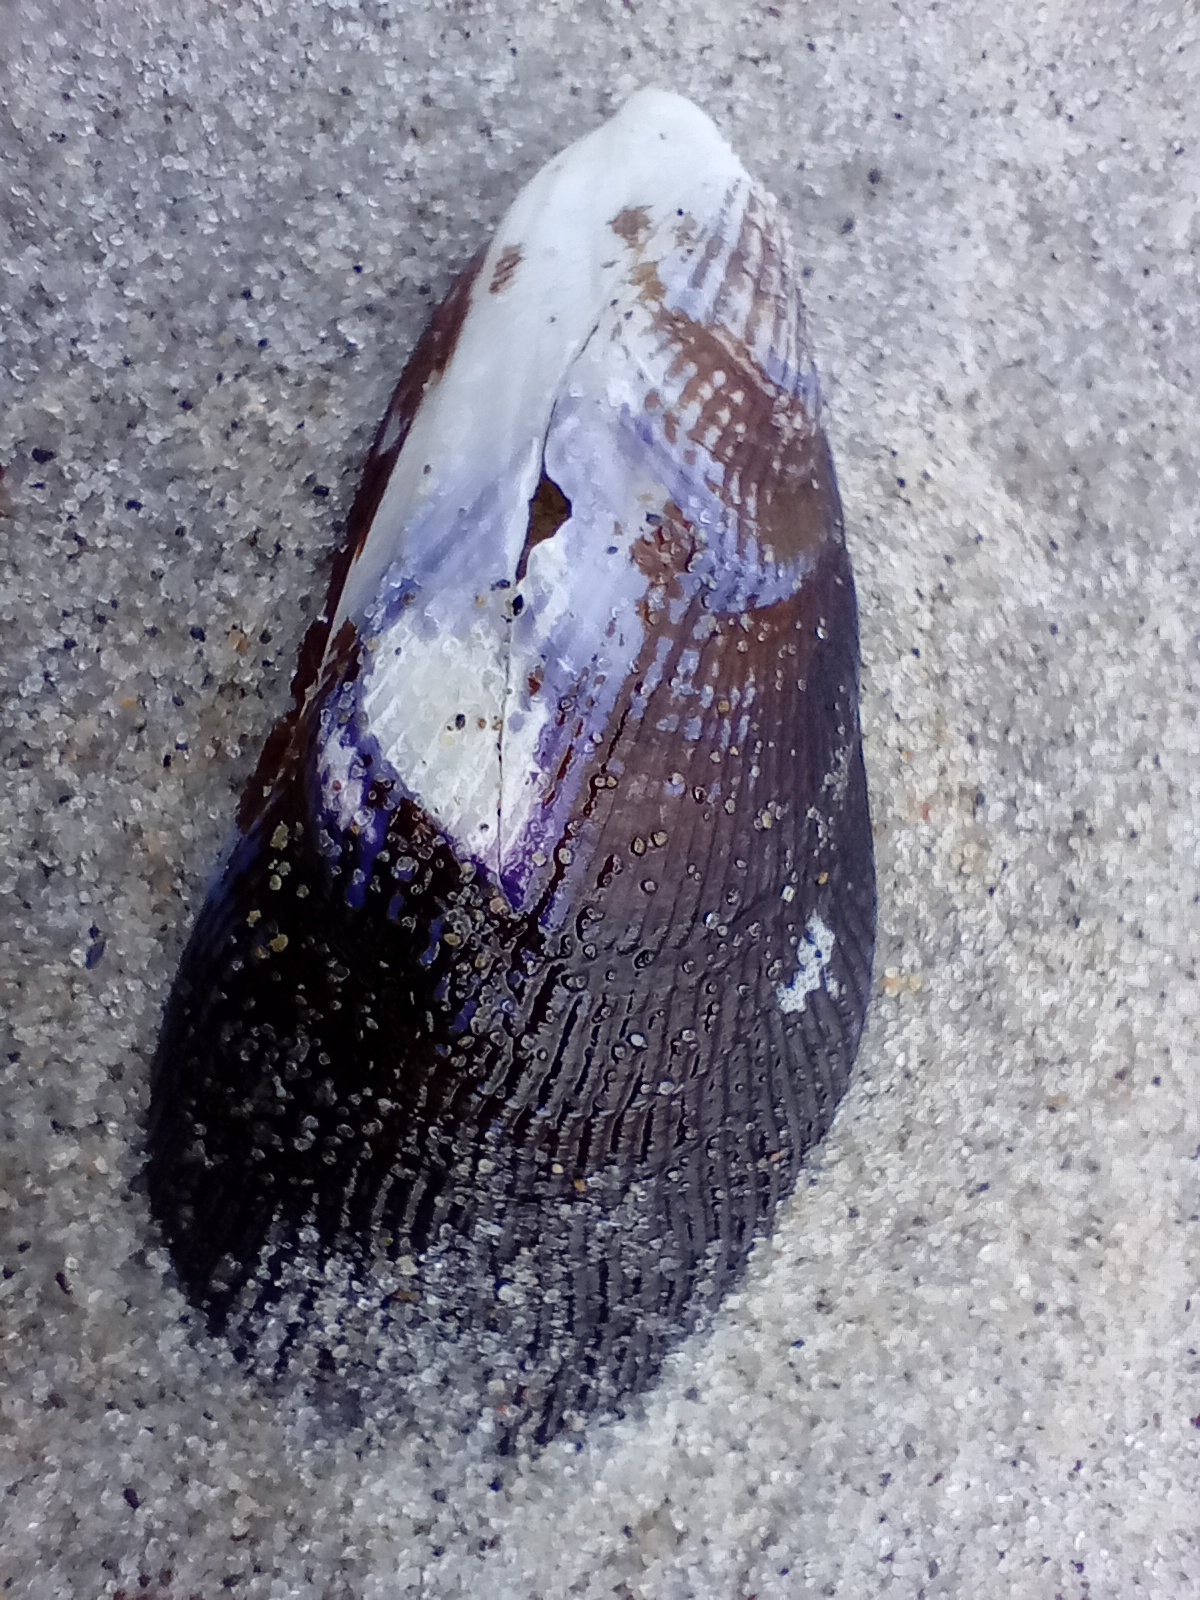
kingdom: Animalia
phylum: Mollusca
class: Bivalvia
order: Mytilida
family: Mytilidae
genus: Aulacomya
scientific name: Aulacomya maoriana
